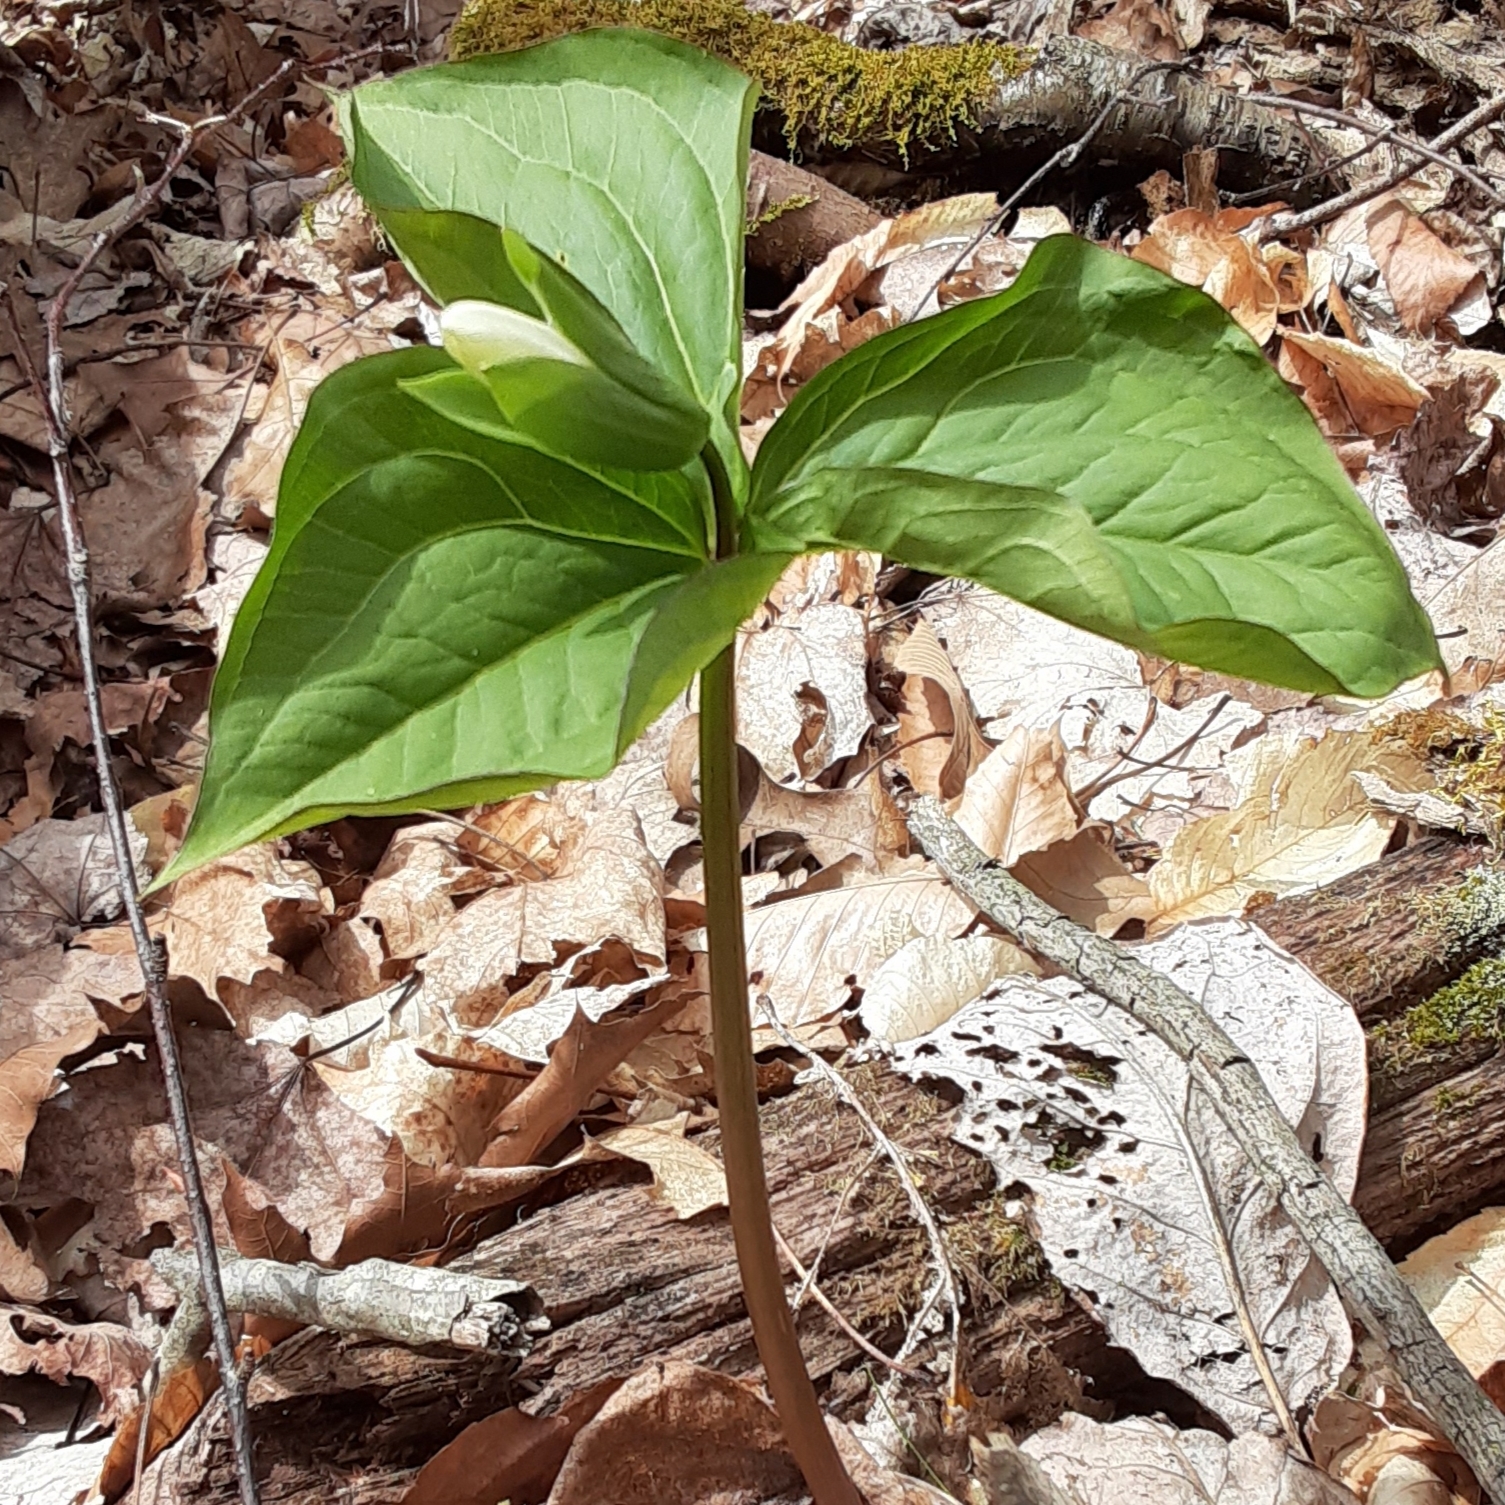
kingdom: Plantae
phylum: Tracheophyta
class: Liliopsida
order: Liliales
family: Melanthiaceae
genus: Trillium
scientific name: Trillium grandiflorum
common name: Great white trillium
